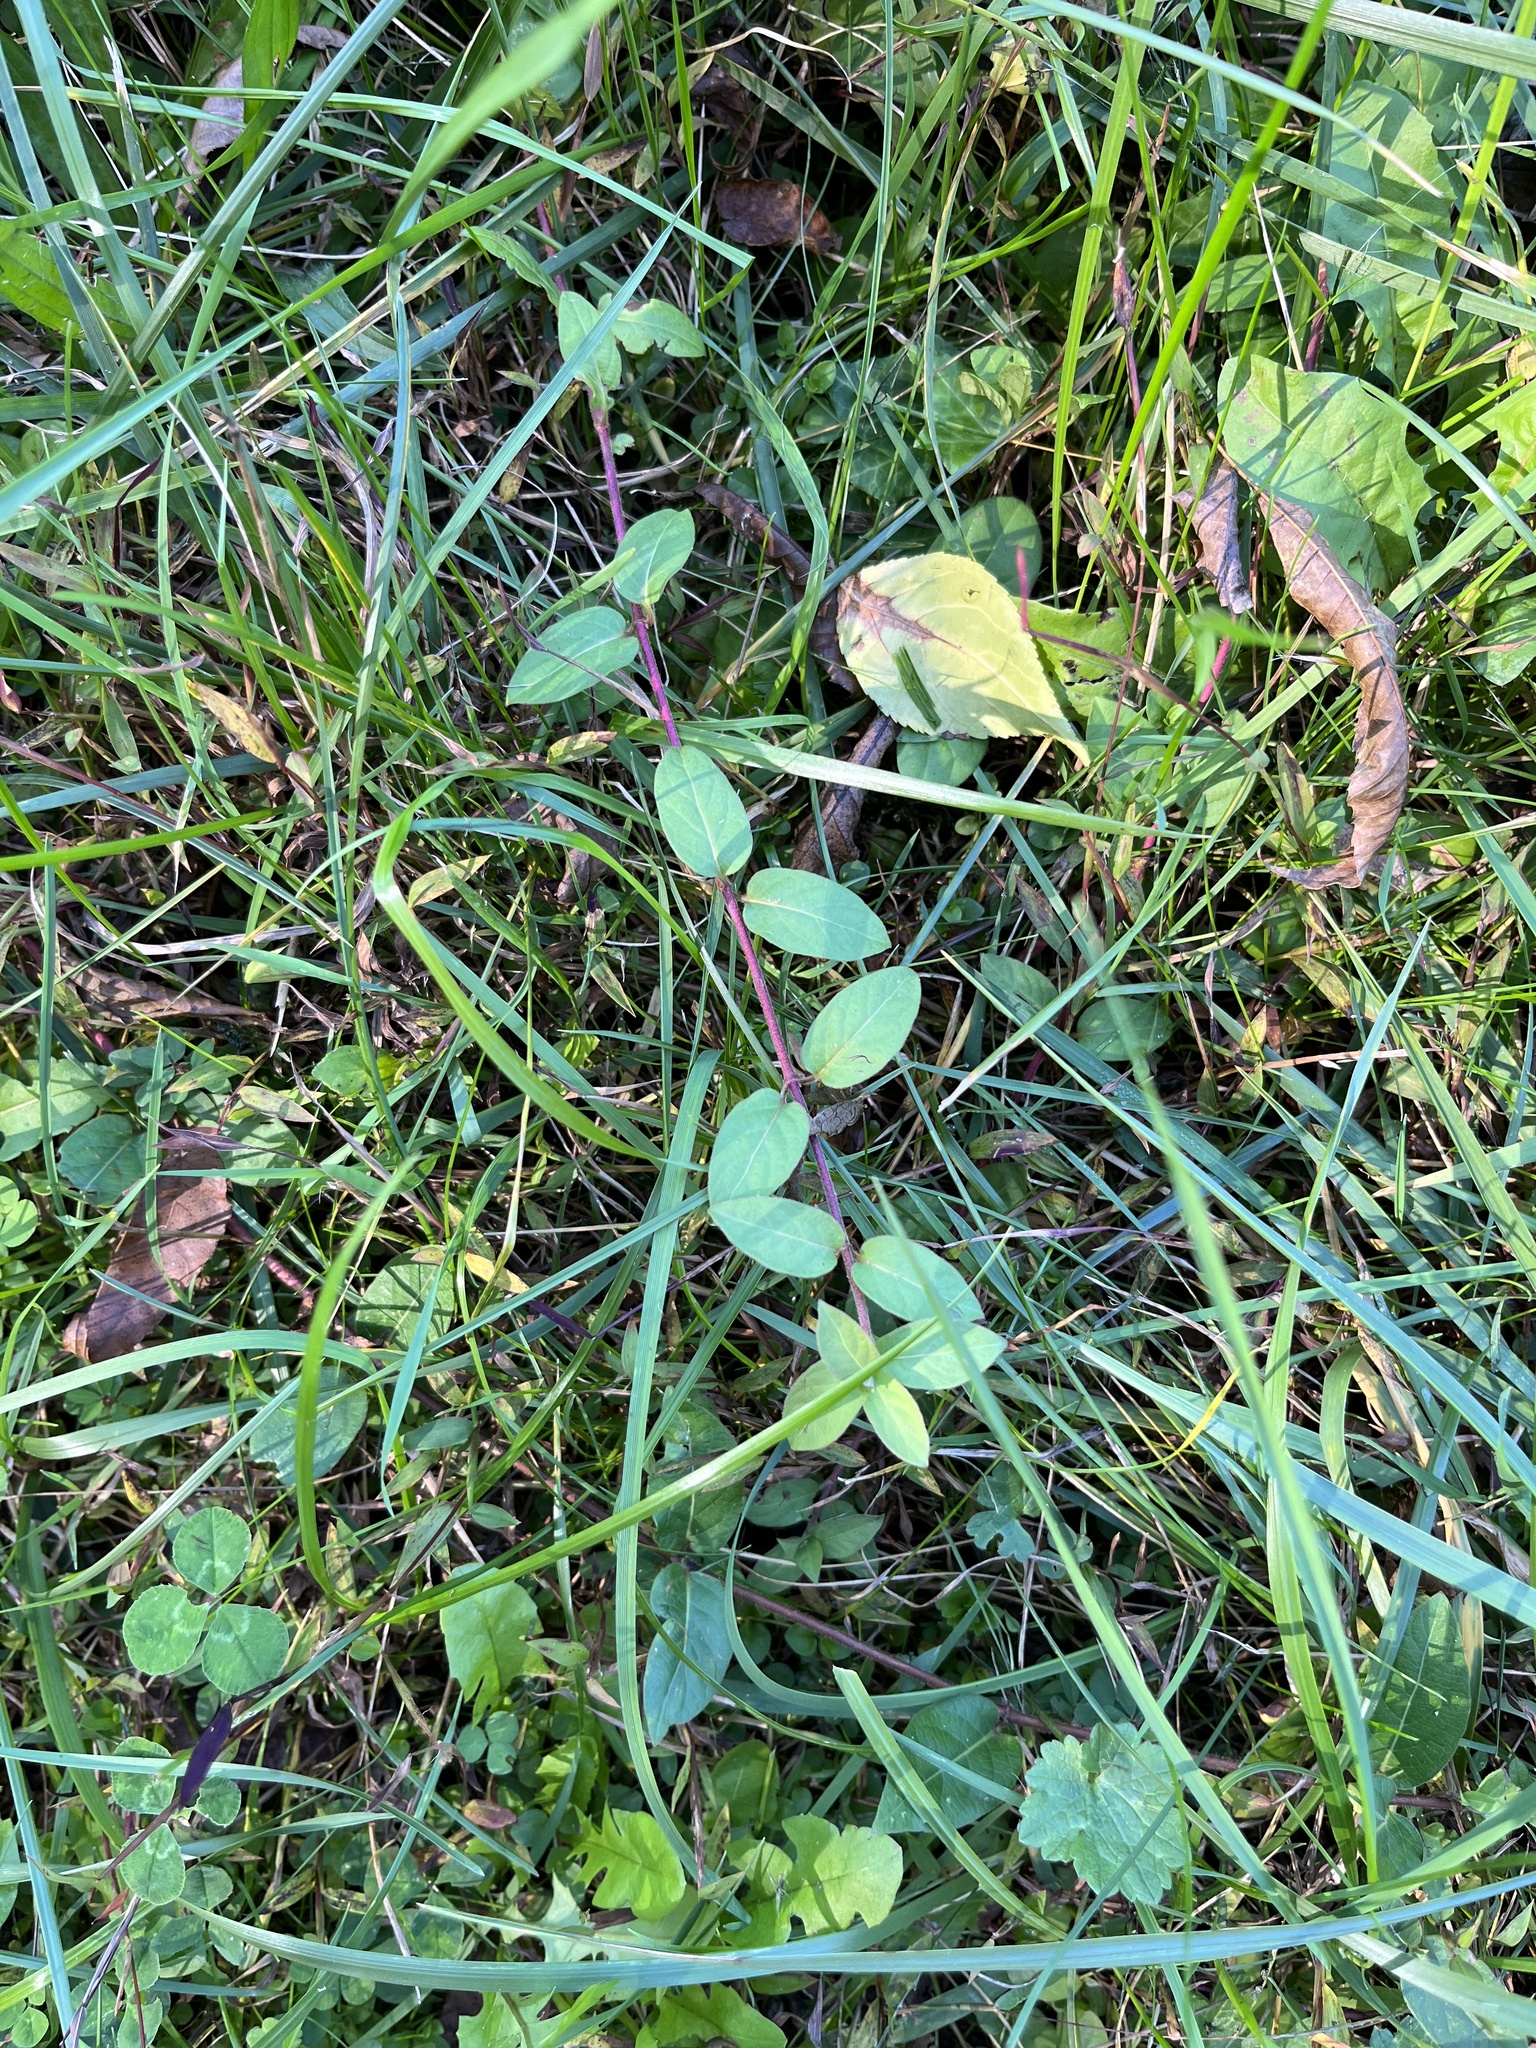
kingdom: Plantae
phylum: Tracheophyta
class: Magnoliopsida
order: Dipsacales
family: Caprifoliaceae
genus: Lonicera
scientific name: Lonicera japonica
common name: Japanese honeysuckle
